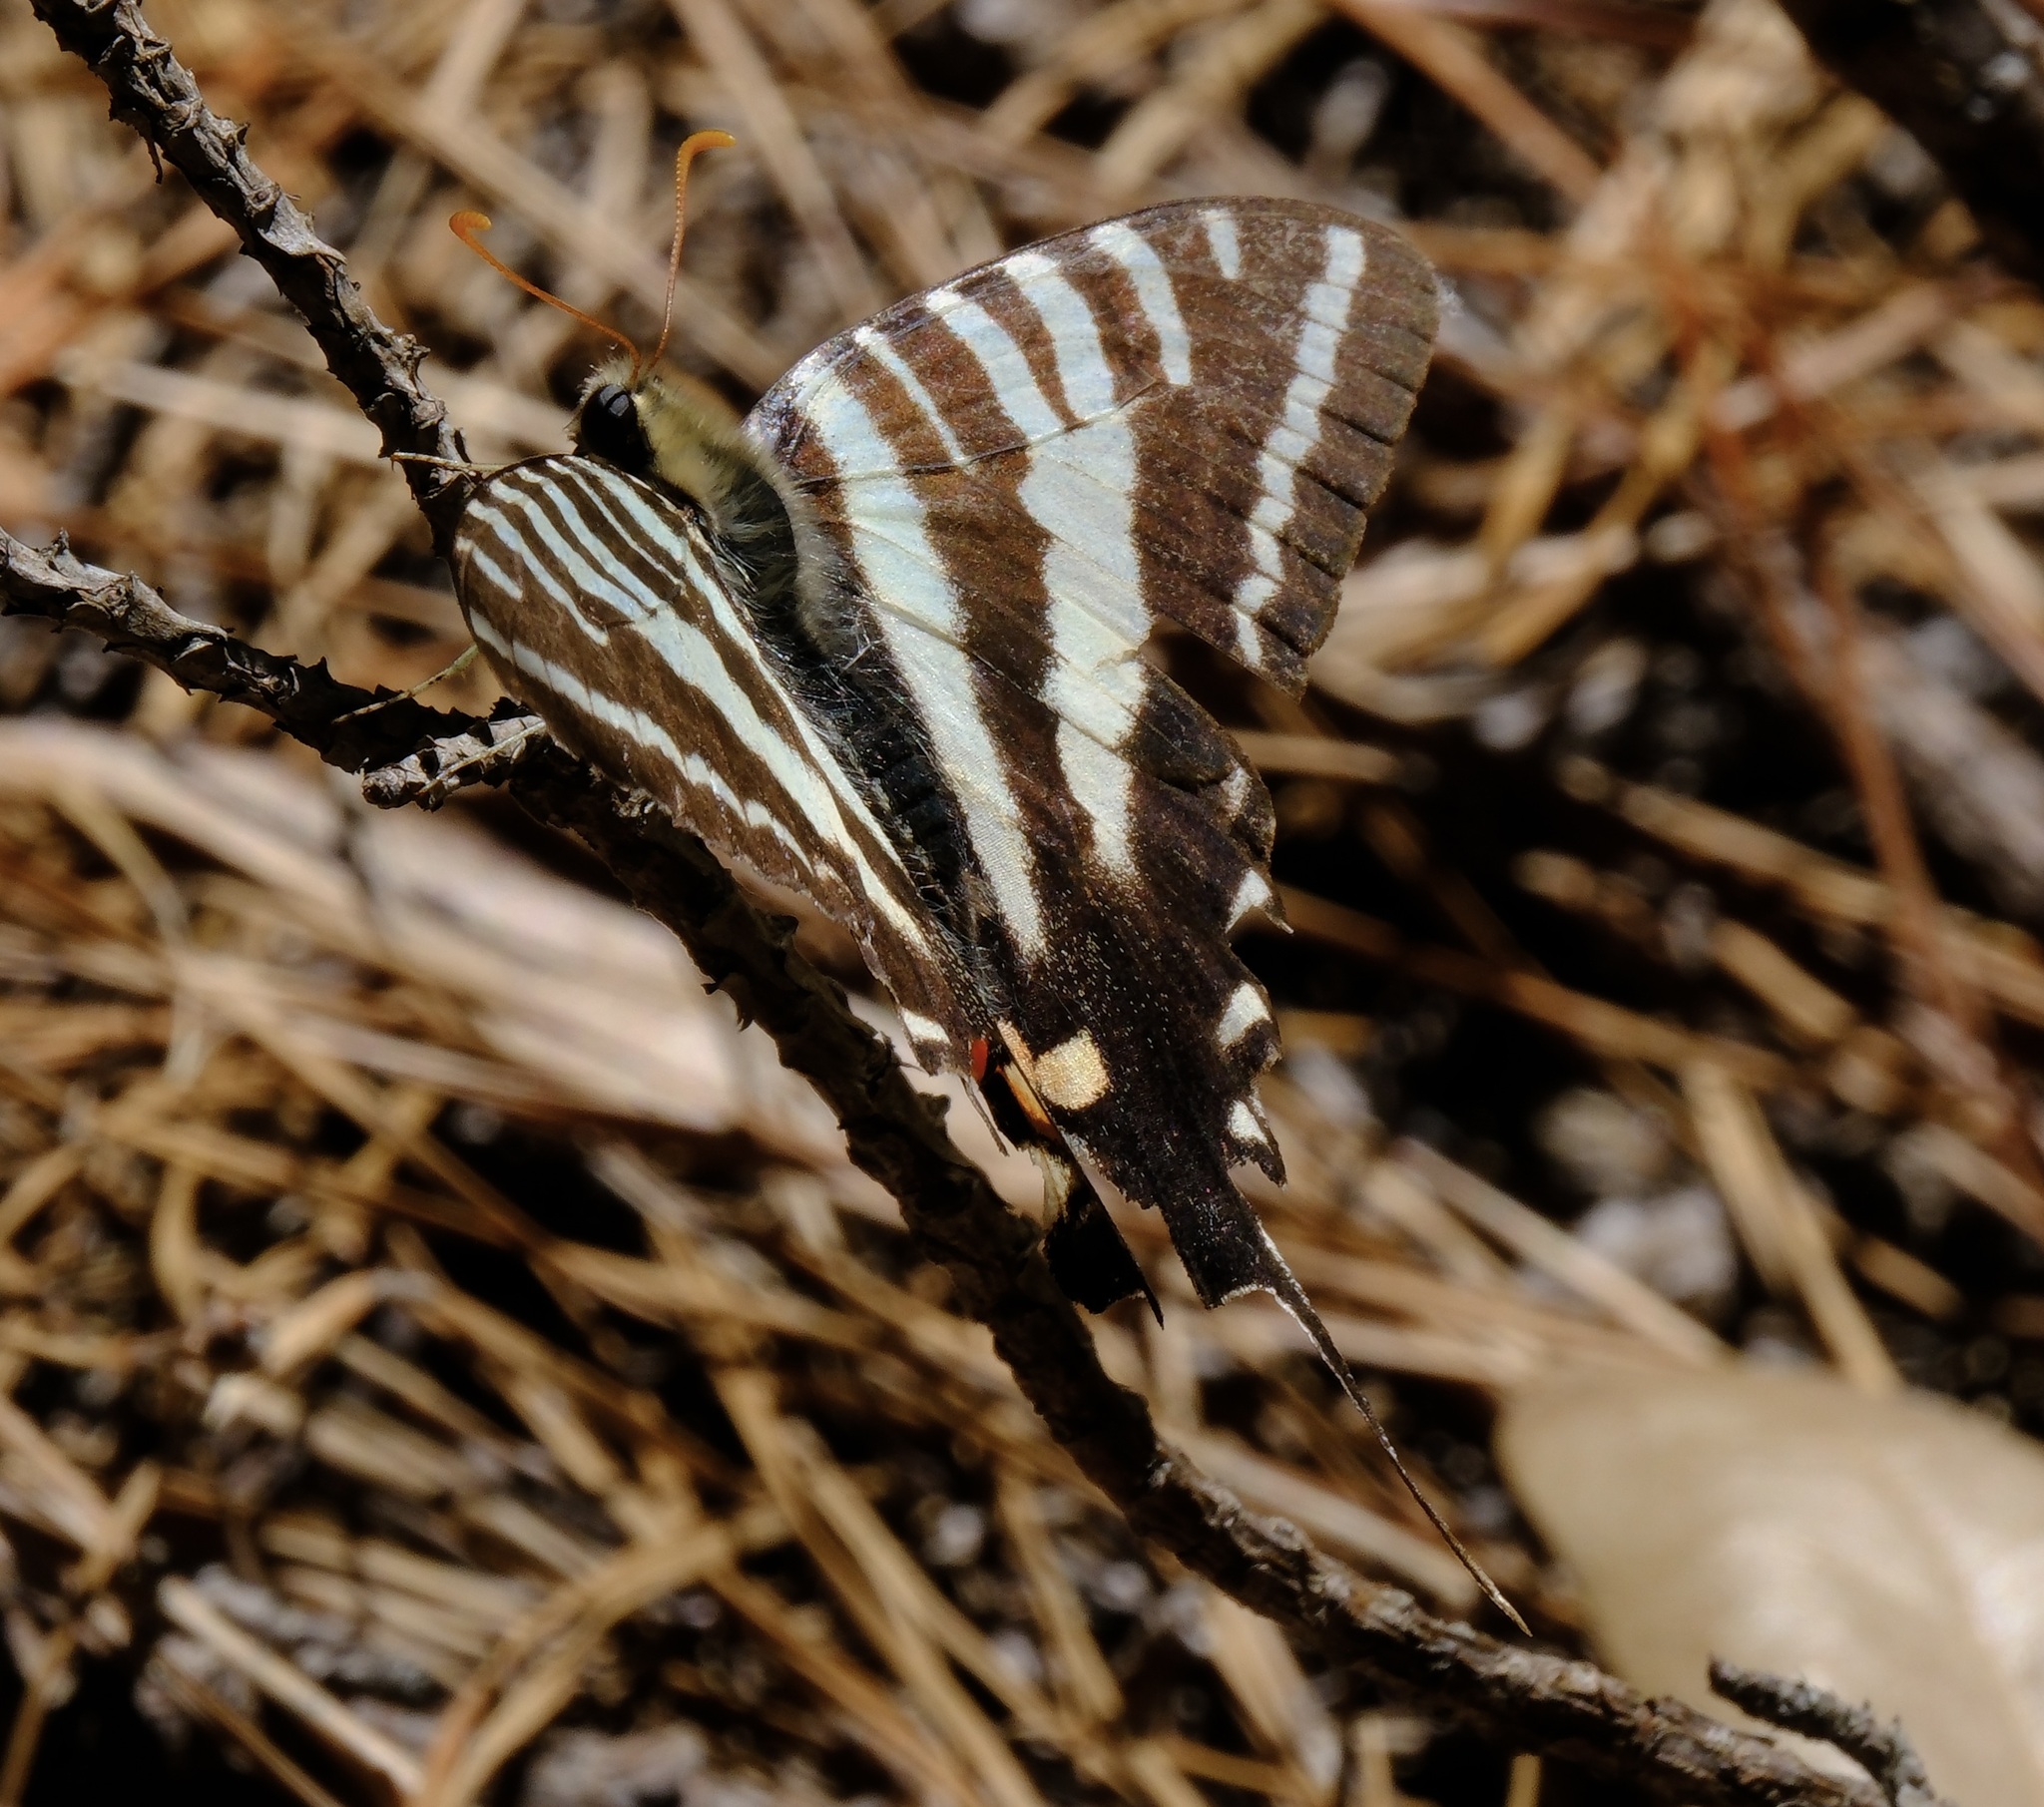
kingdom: Animalia
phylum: Arthropoda
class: Insecta
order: Lepidoptera
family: Papilionidae
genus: Protographium
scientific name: Protographium marcellus
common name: Zebra swallowtail
